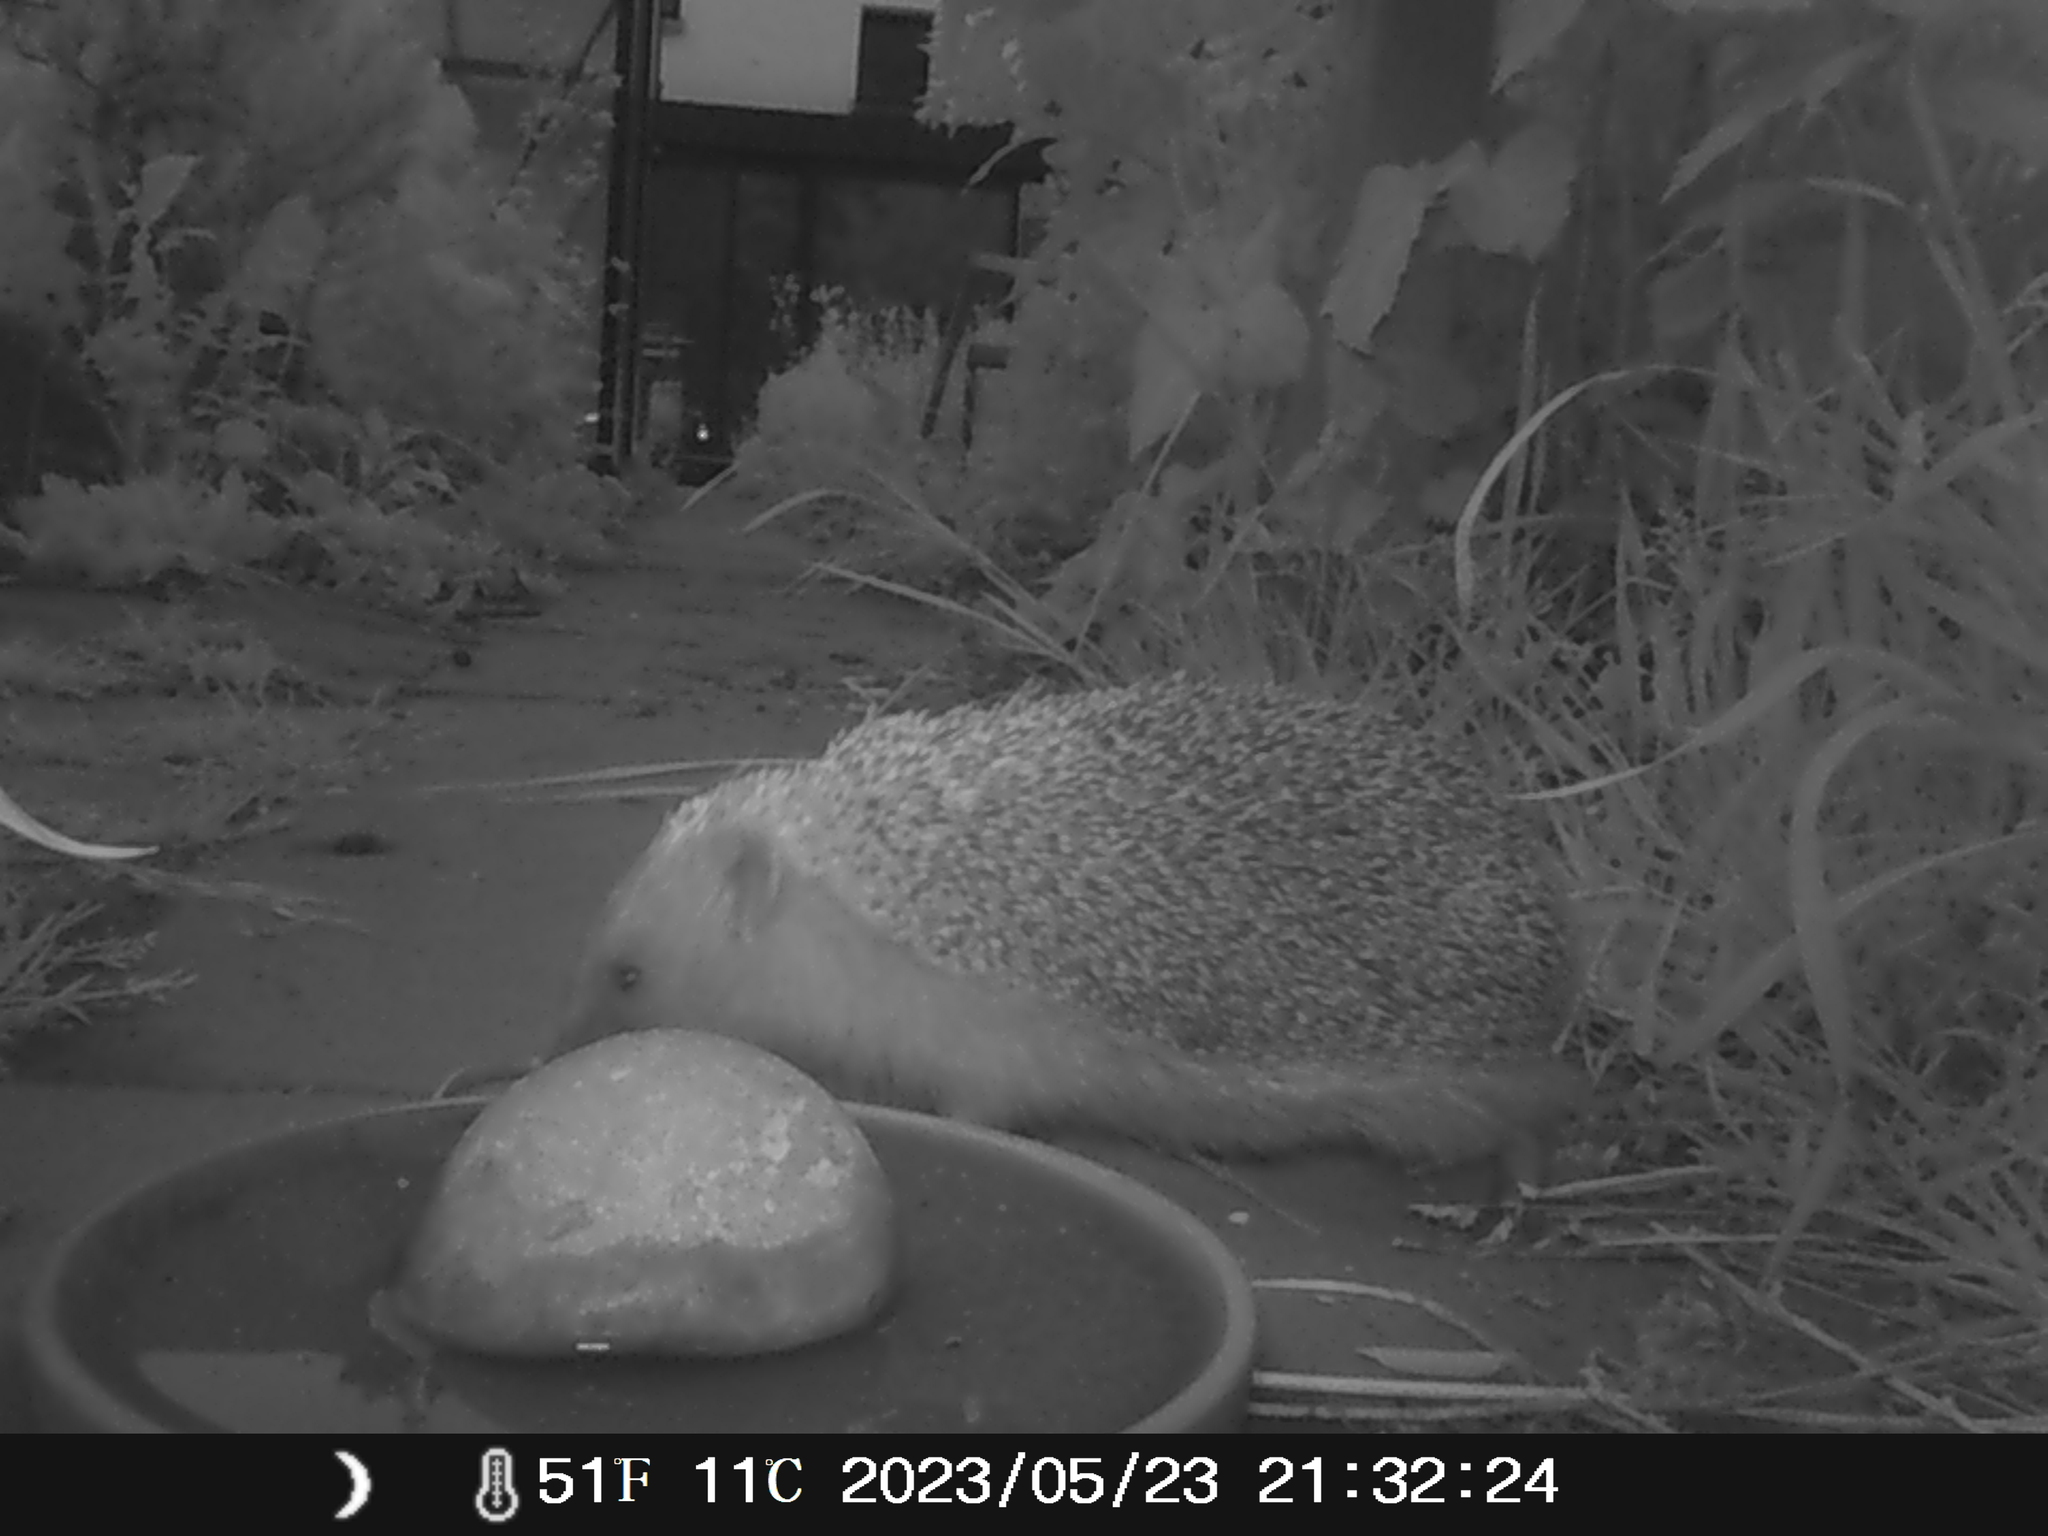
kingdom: Animalia
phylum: Chordata
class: Mammalia
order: Erinaceomorpha
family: Erinaceidae
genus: Erinaceus
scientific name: Erinaceus europaeus
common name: West european hedgehog
